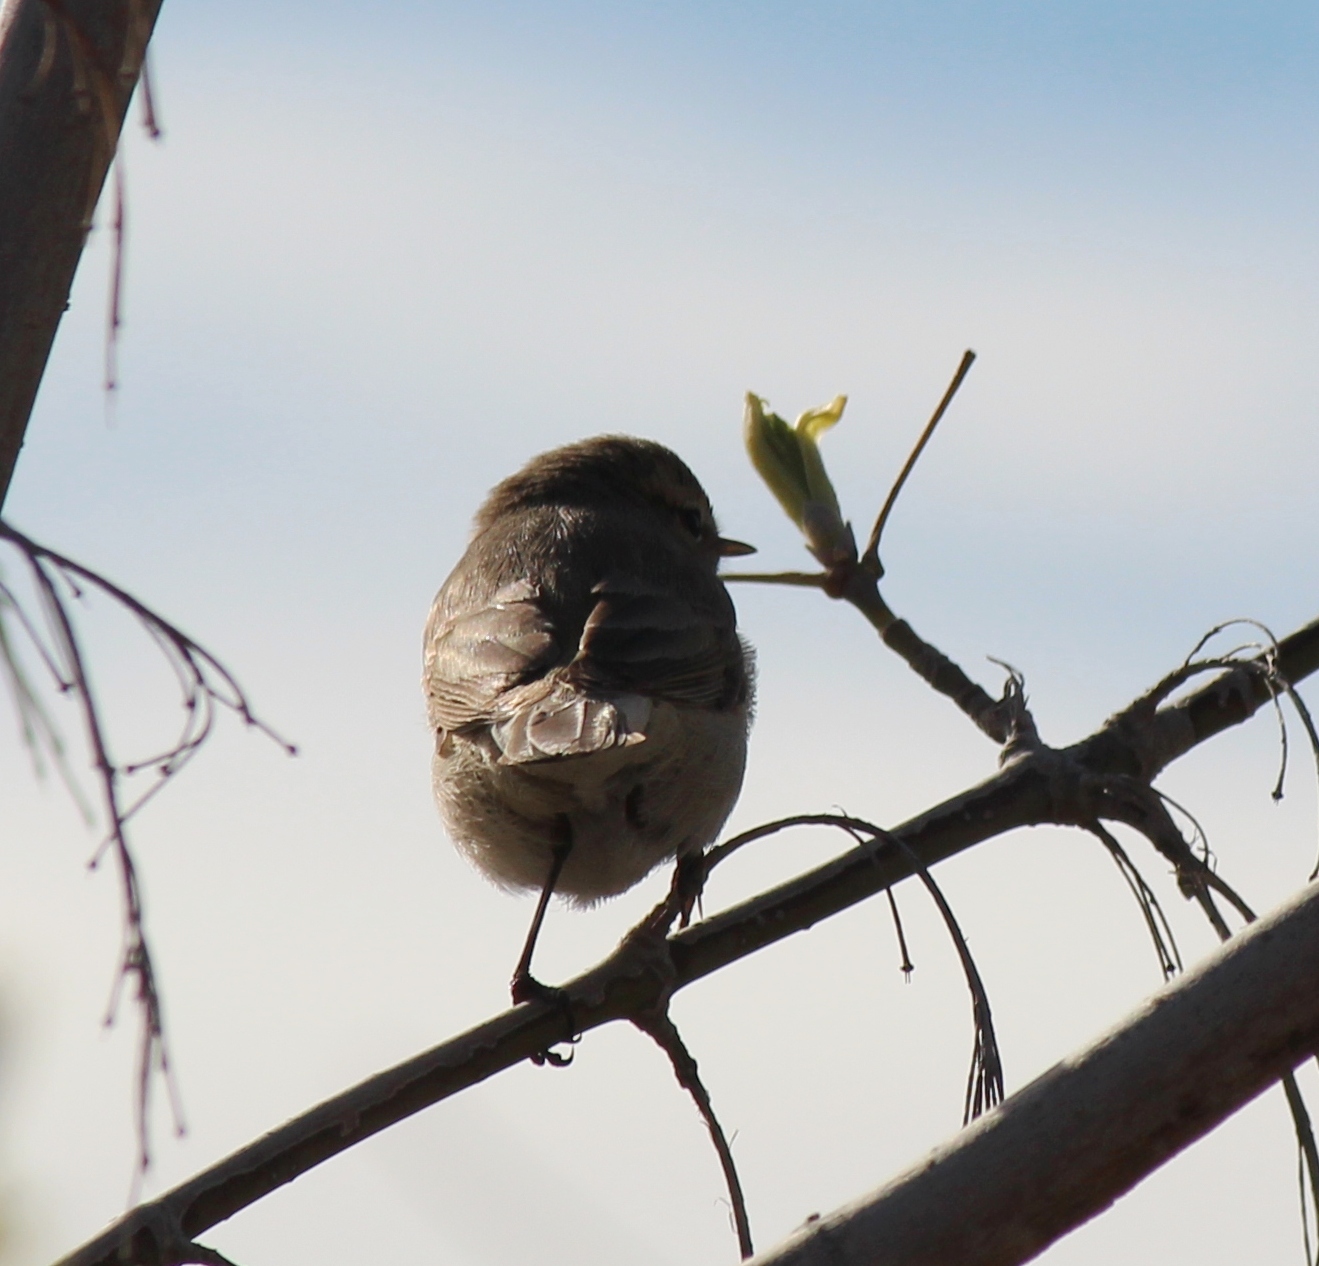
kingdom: Animalia
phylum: Chordata
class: Aves
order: Passeriformes
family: Phylloscopidae
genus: Phylloscopus
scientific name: Phylloscopus collybita
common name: Common chiffchaff
